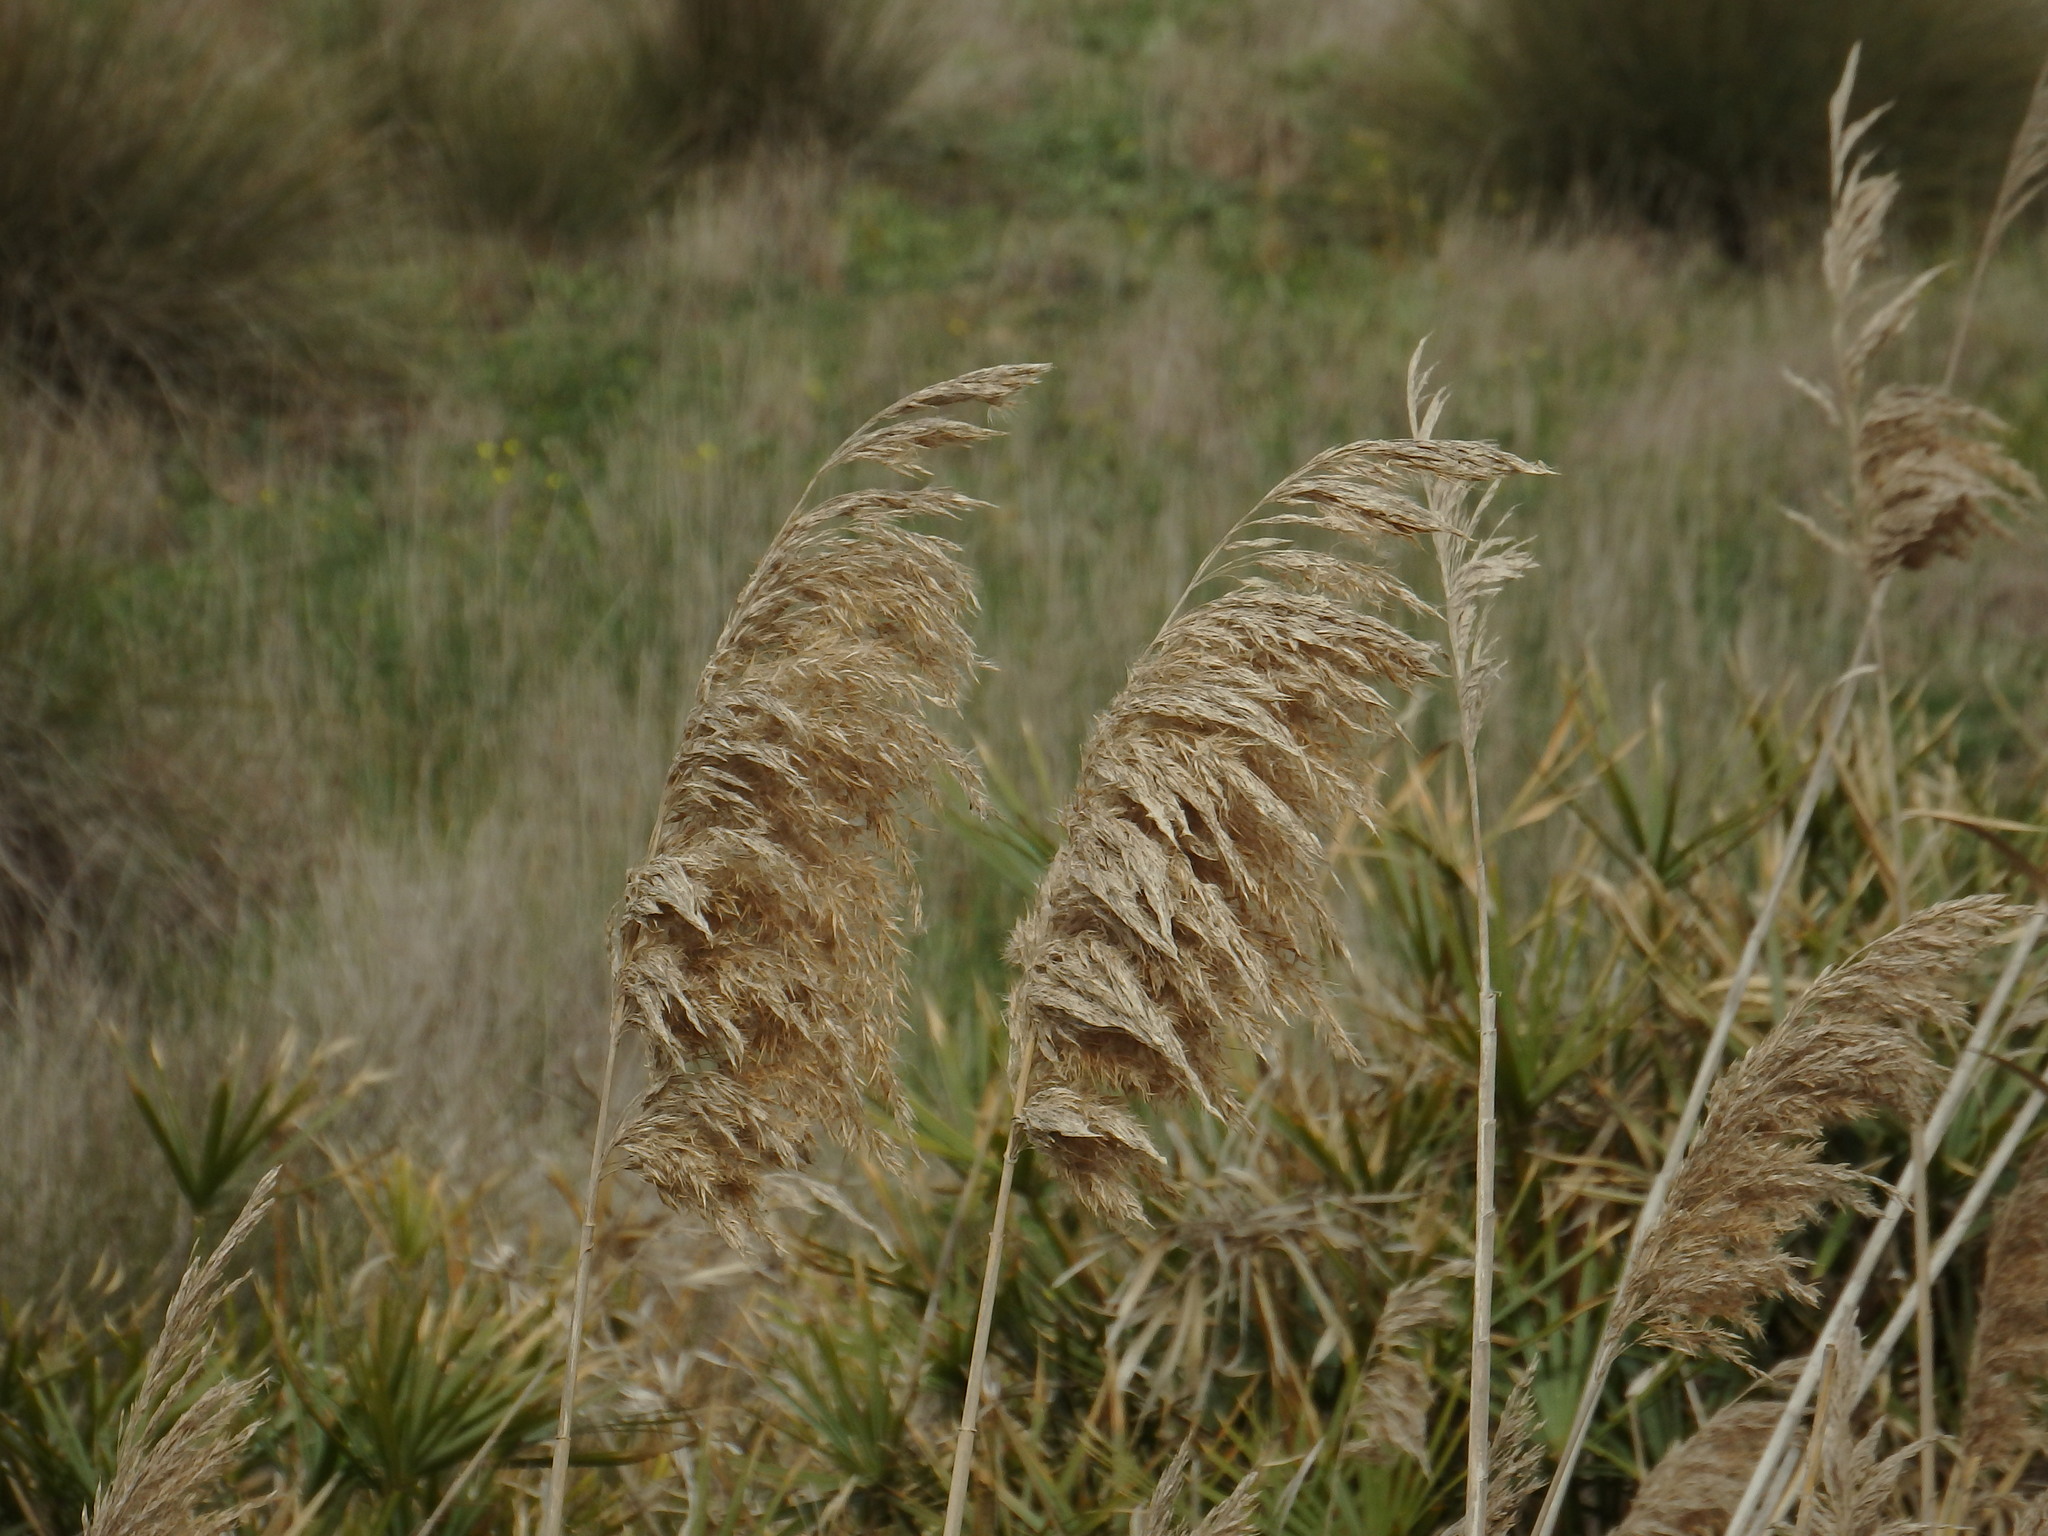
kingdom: Plantae
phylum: Tracheophyta
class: Liliopsida
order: Poales
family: Poaceae
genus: Phragmites
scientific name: Phragmites australis
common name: Common reed
